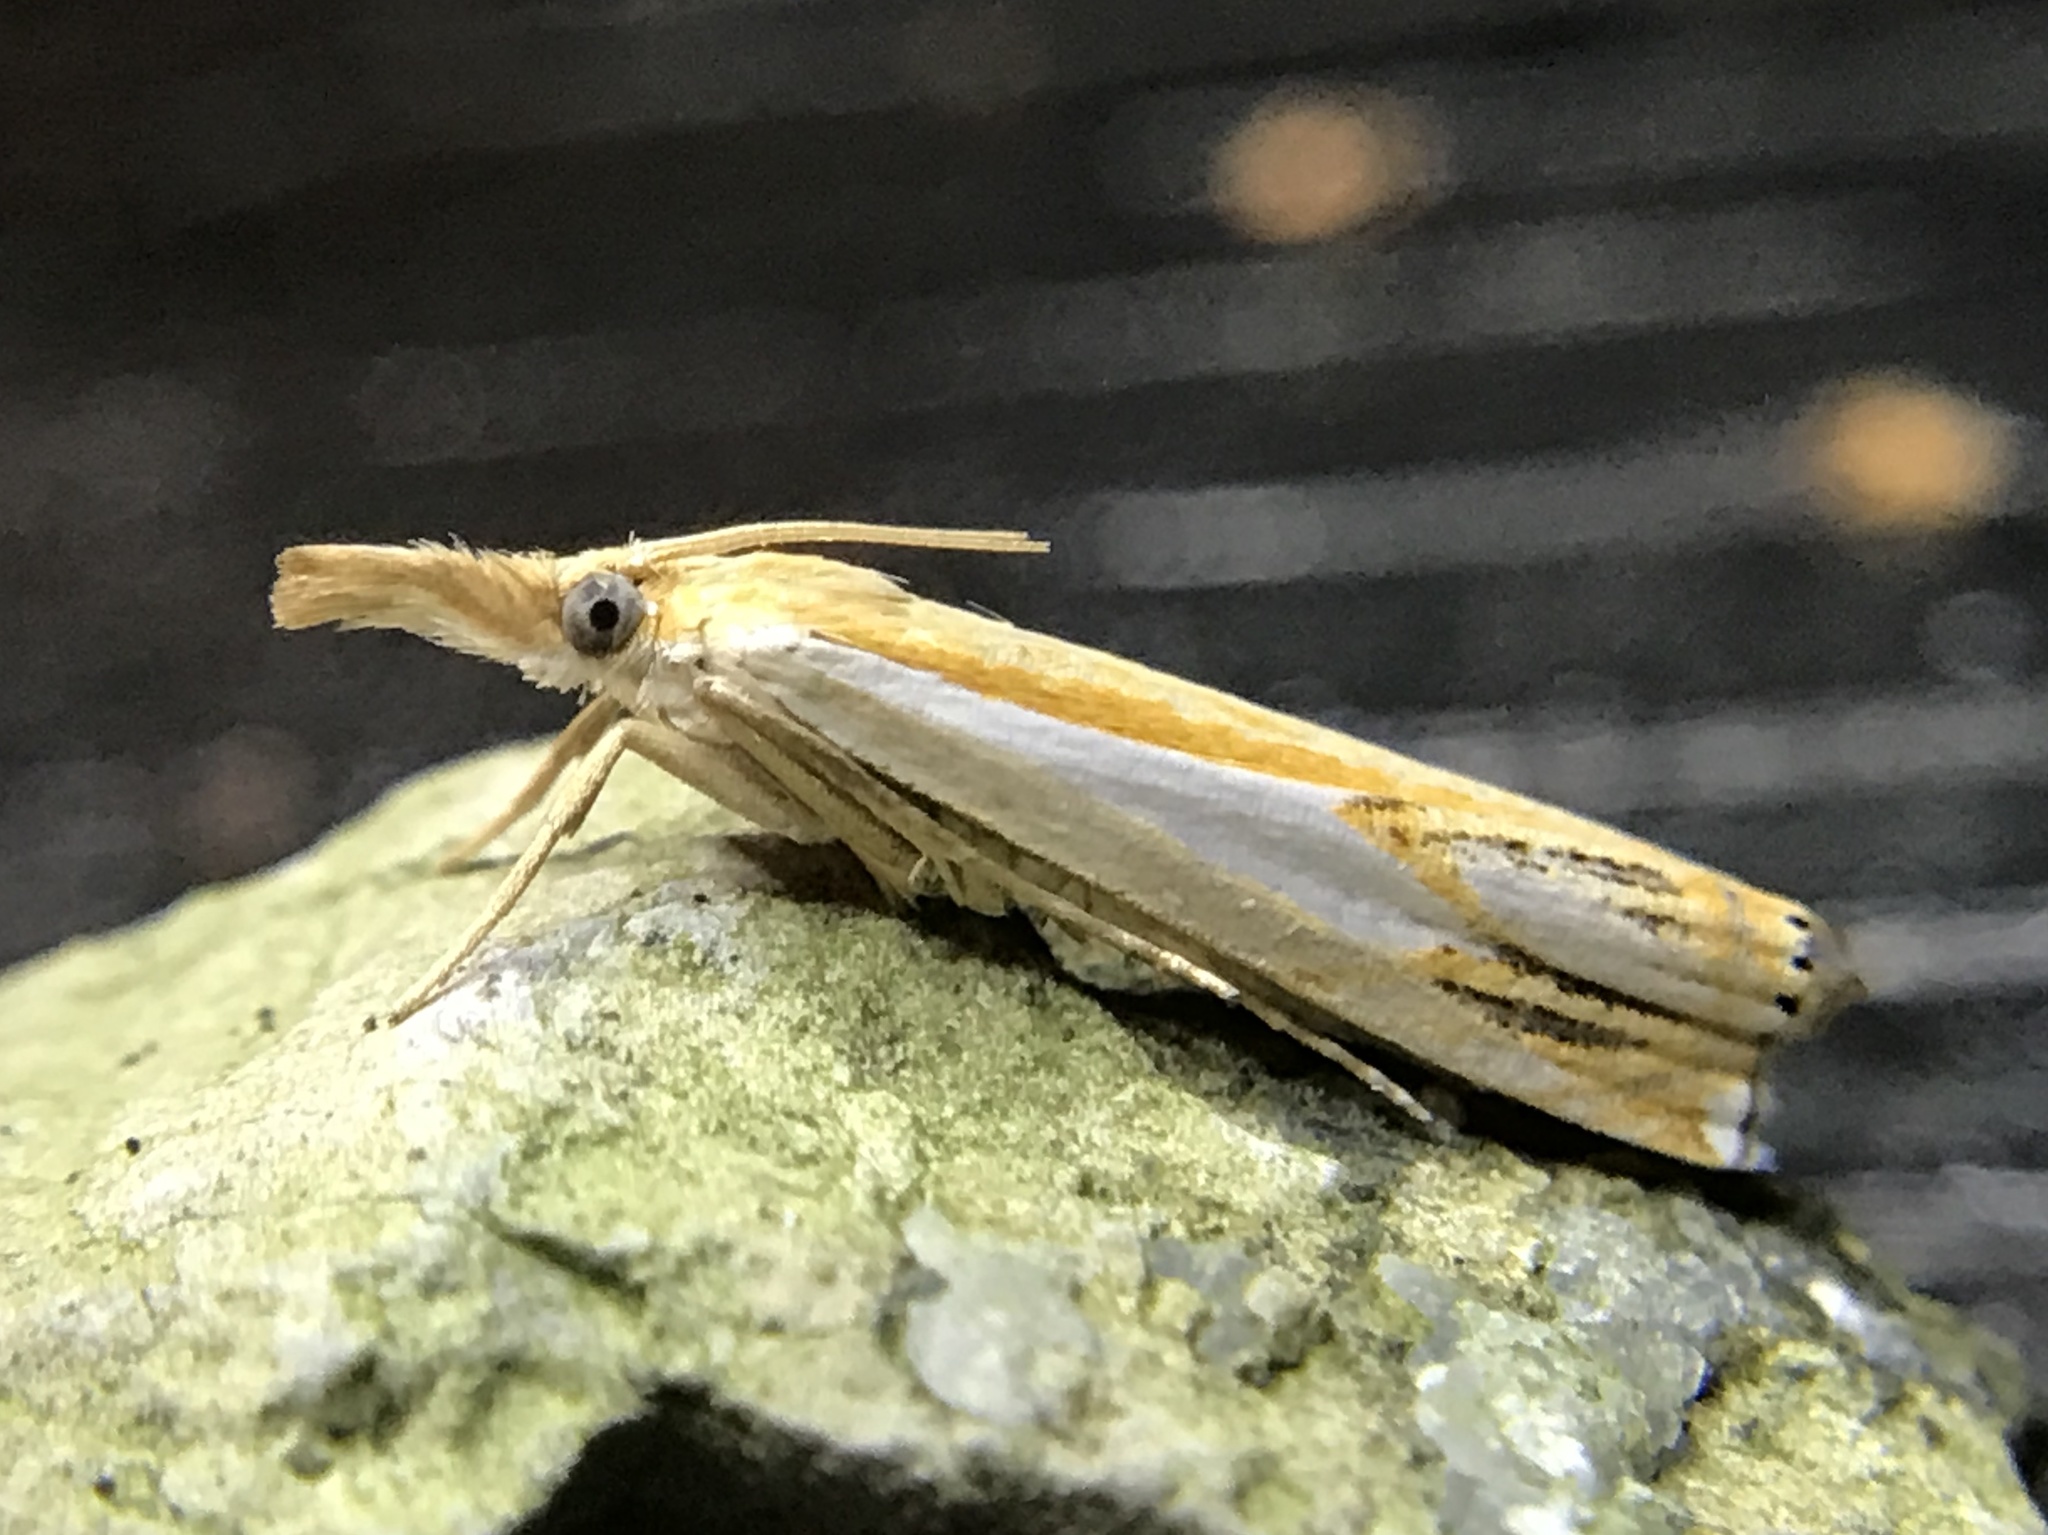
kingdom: Animalia
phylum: Arthropoda
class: Insecta
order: Lepidoptera
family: Crambidae
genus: Crambus
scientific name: Crambus agitatellus
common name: Double-banded grass-veneer
